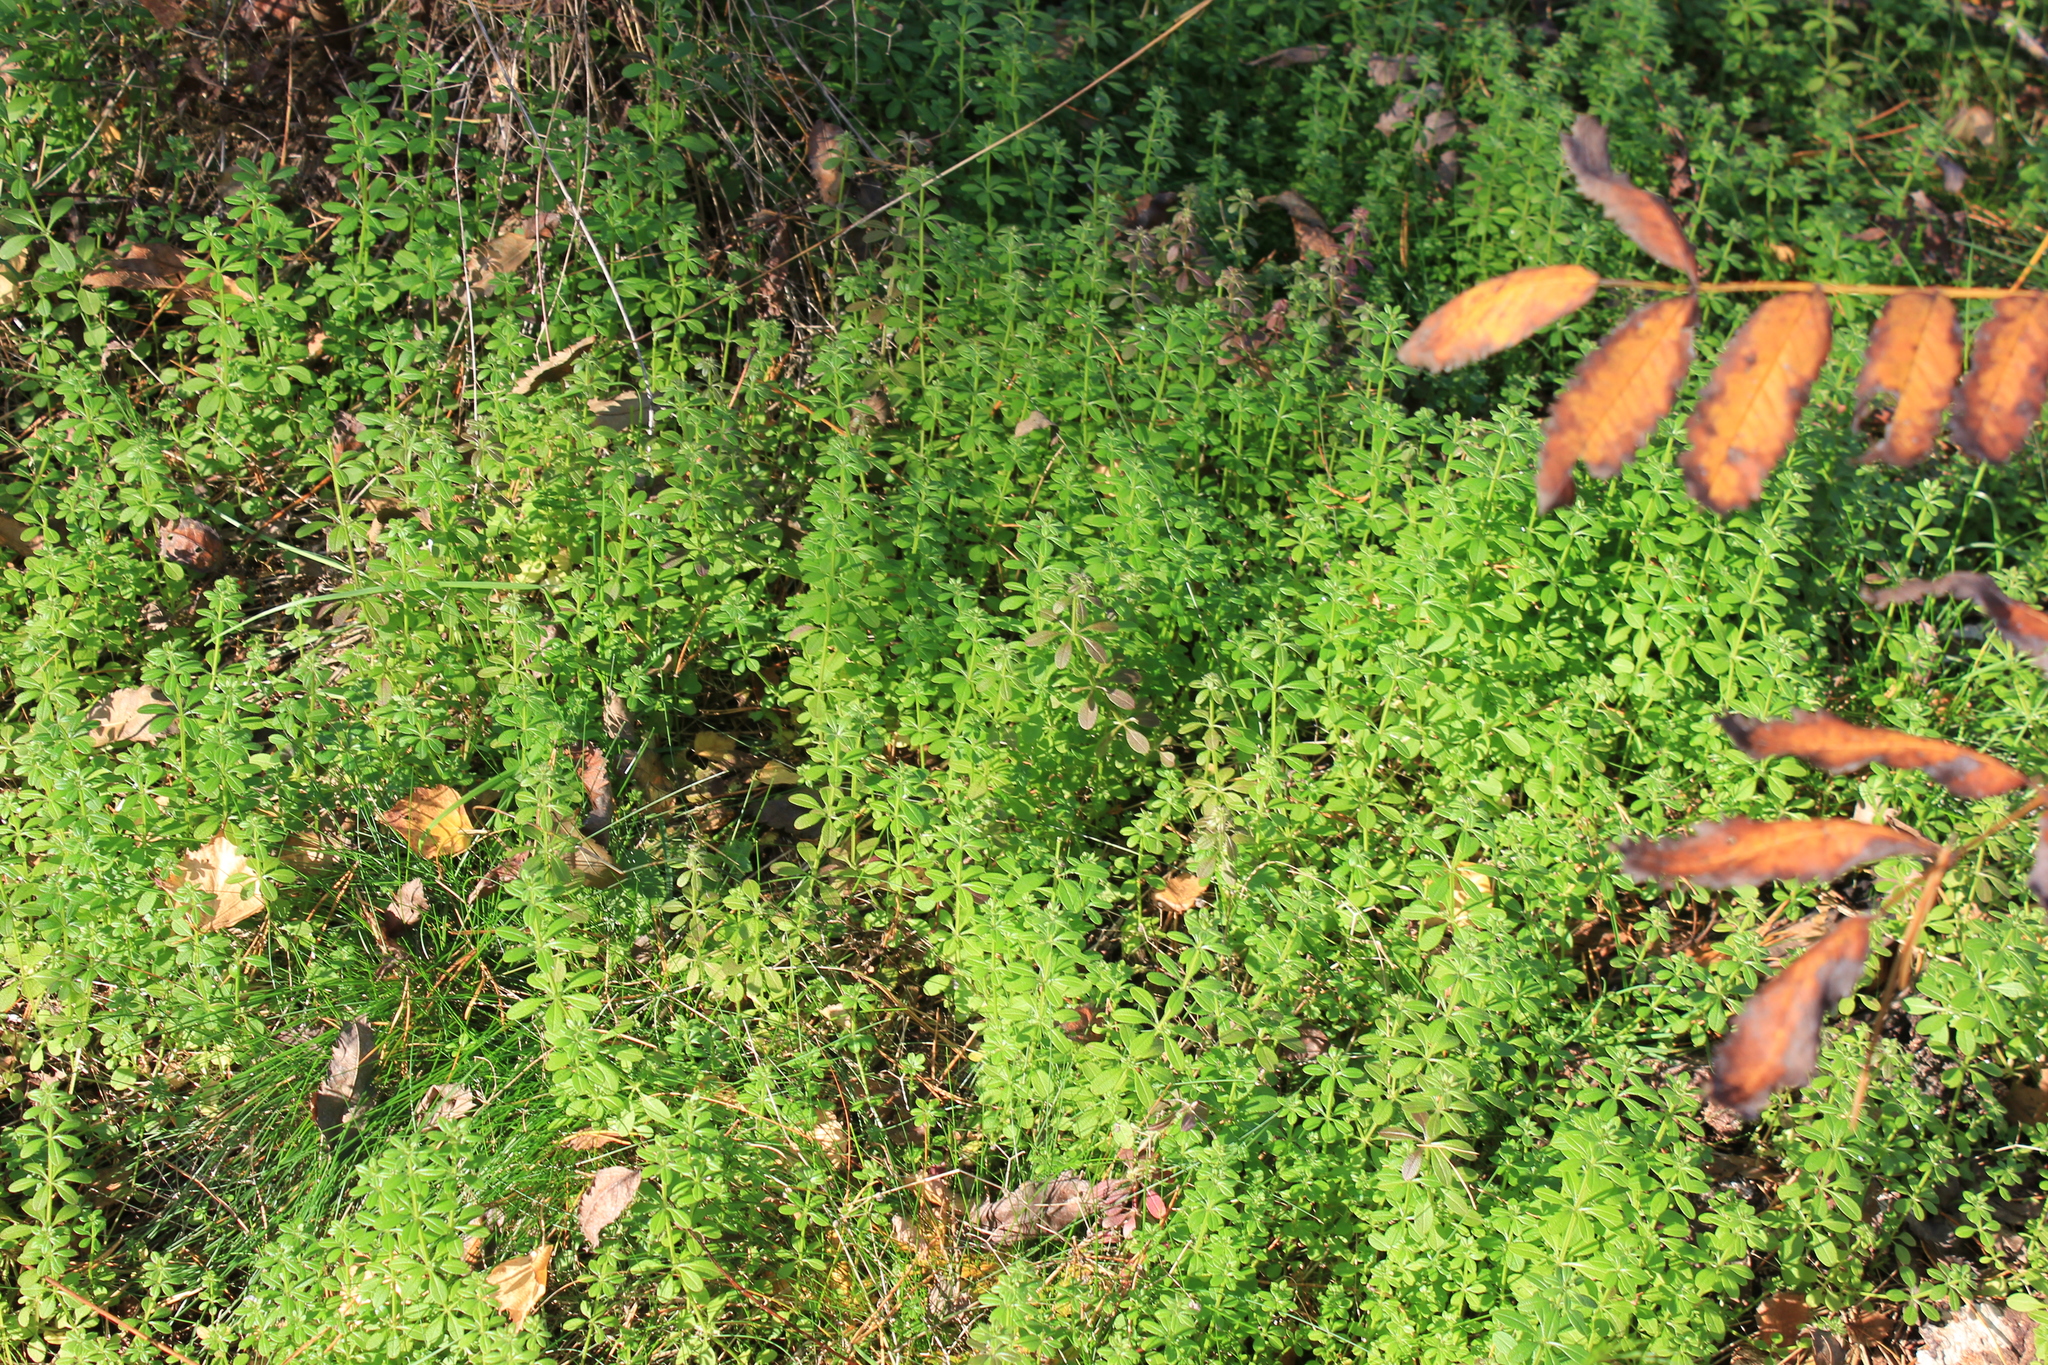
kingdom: Plantae
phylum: Tracheophyta
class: Magnoliopsida
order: Gentianales
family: Rubiaceae
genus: Galium
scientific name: Galium aparine
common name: Cleavers
